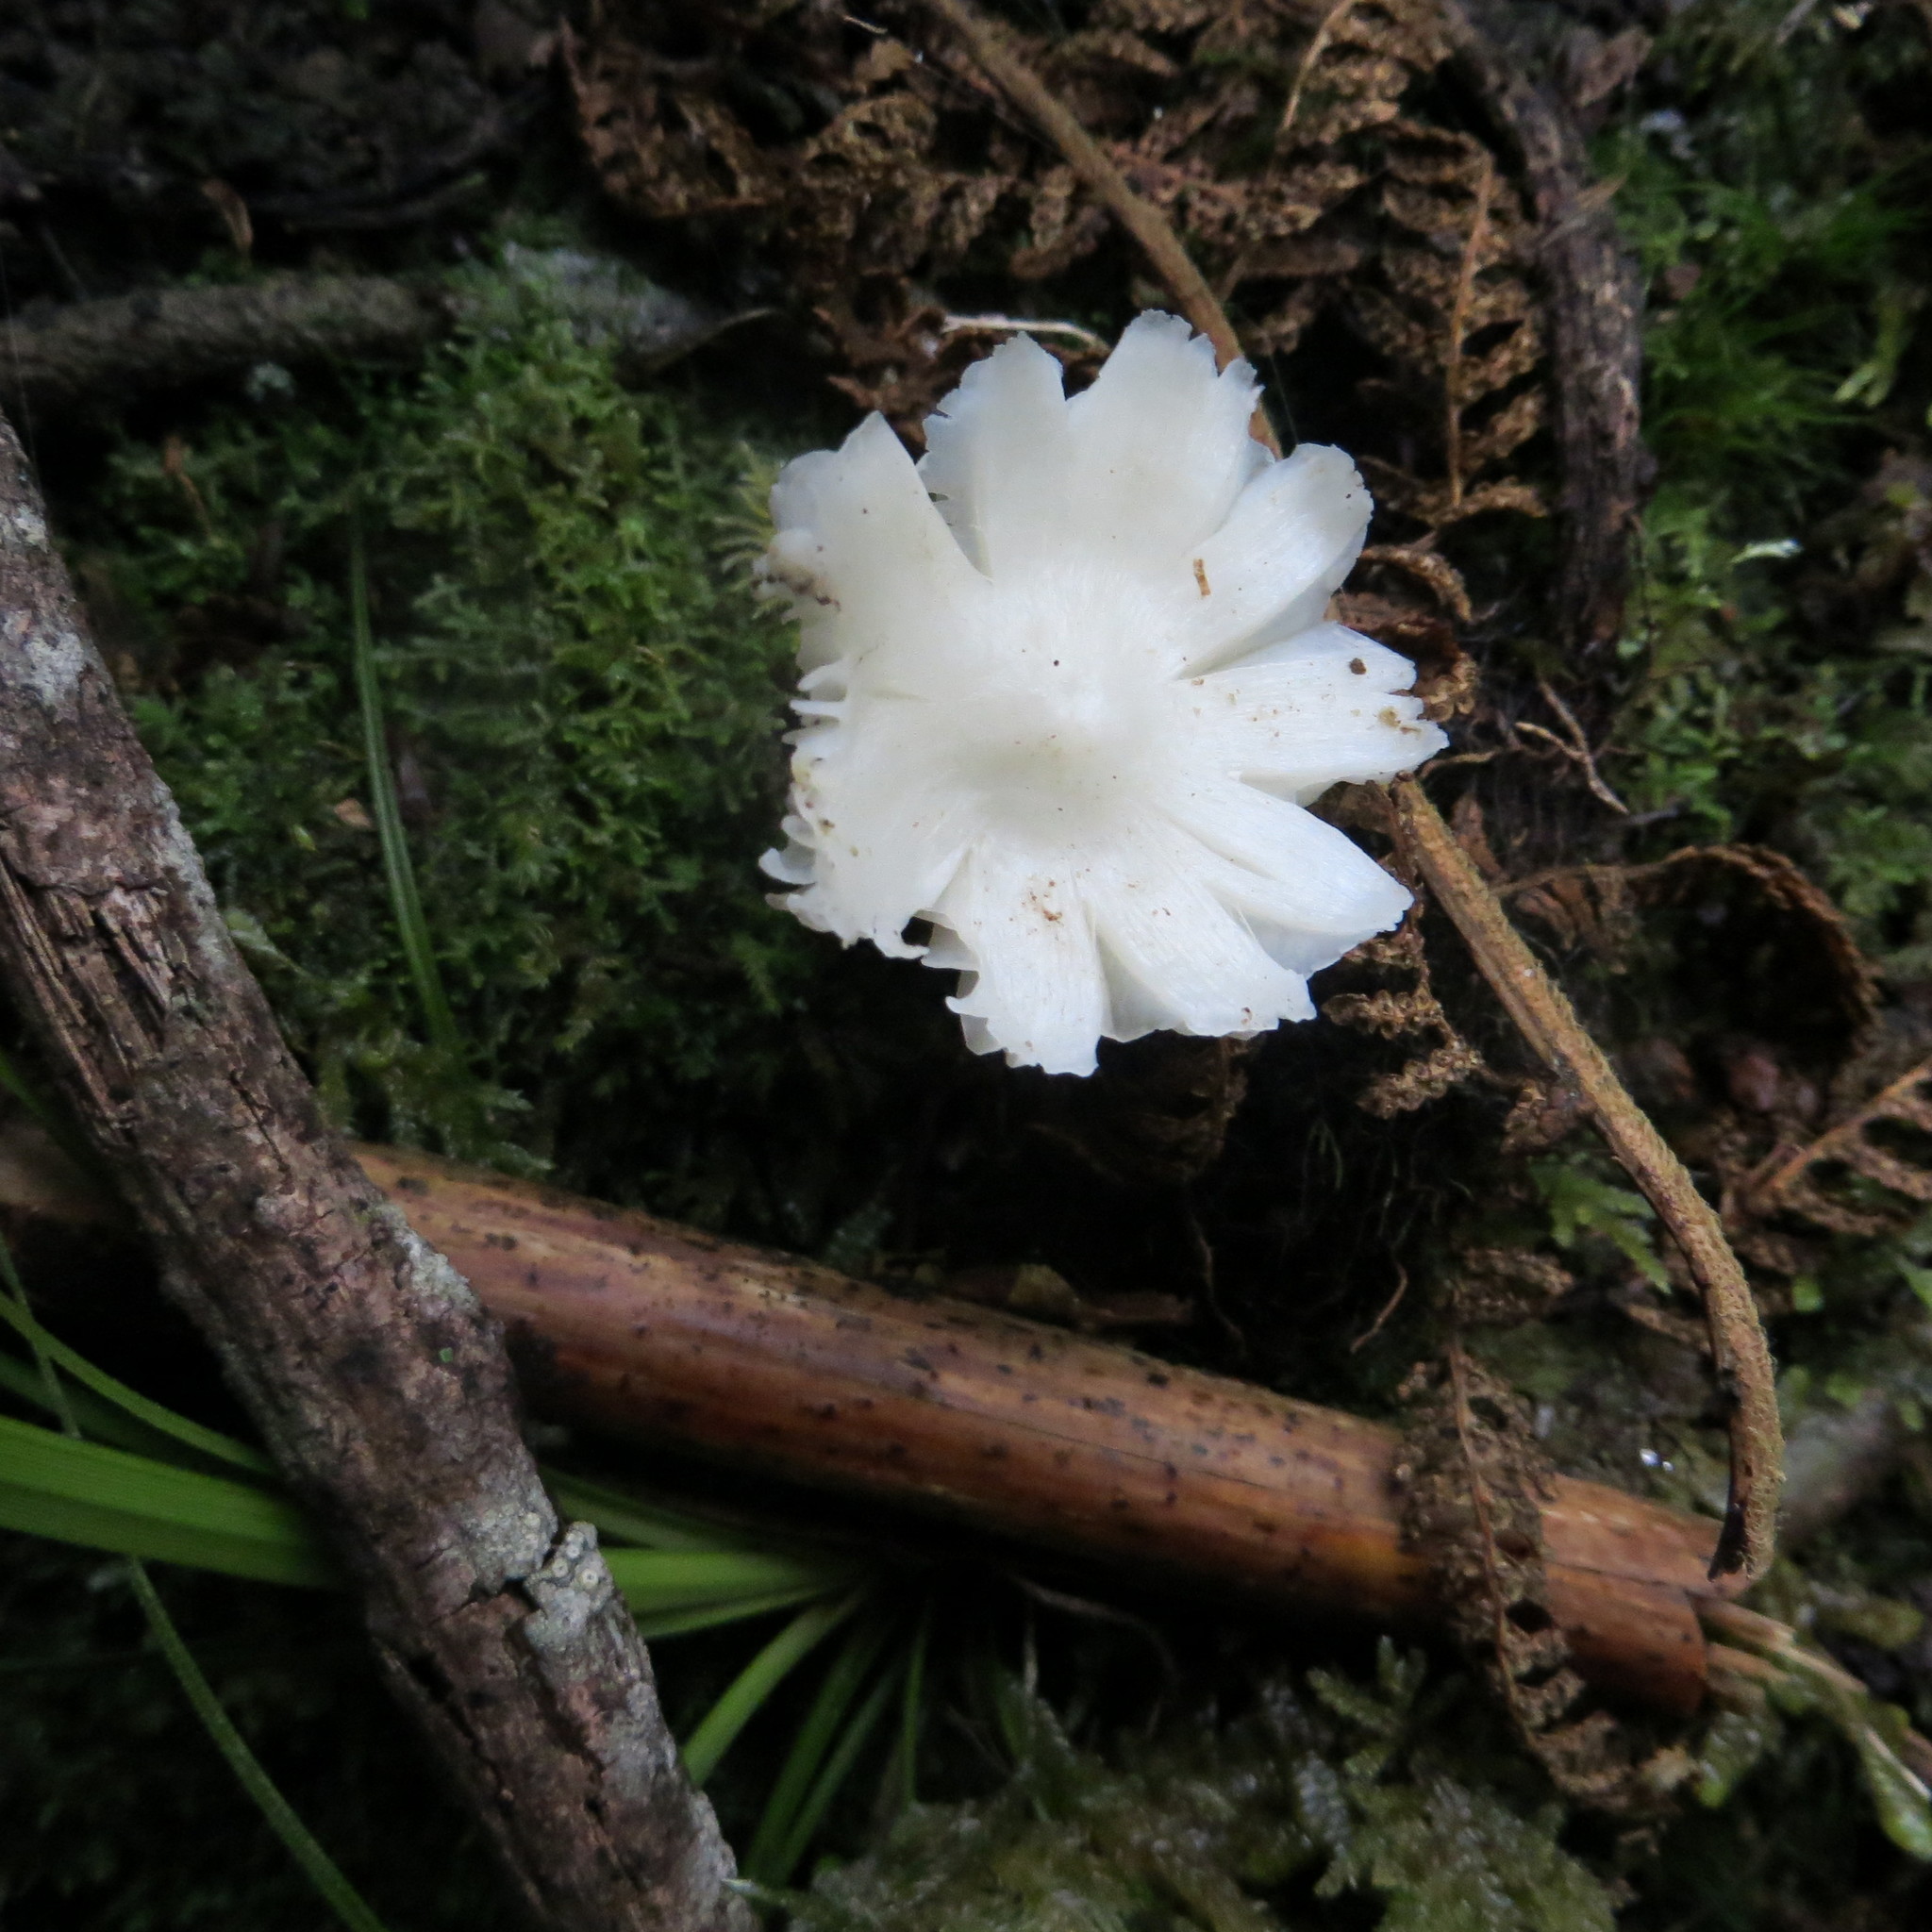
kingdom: Fungi
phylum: Basidiomycota
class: Agaricomycetes
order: Agaricales
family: Hygrophoraceae
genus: Humidicutis
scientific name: Humidicutis mavis
